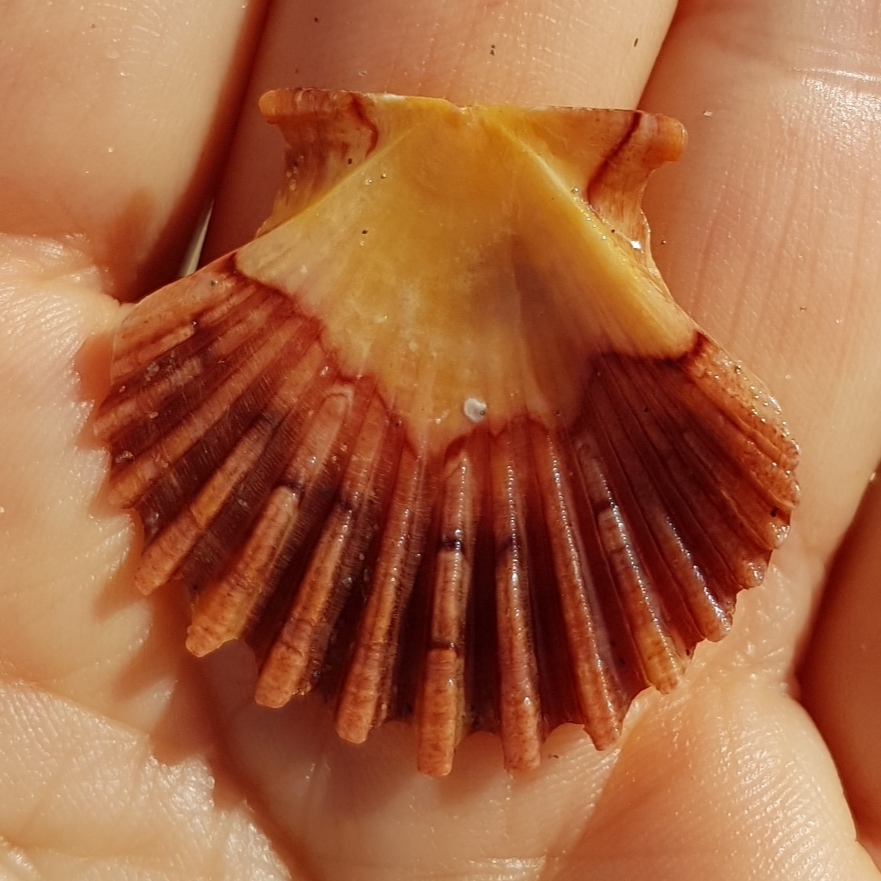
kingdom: Animalia
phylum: Mollusca
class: Bivalvia
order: Pectinida
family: Pectinidae
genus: Pecten
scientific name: Pecten jacobaeus
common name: St.james's scallop
